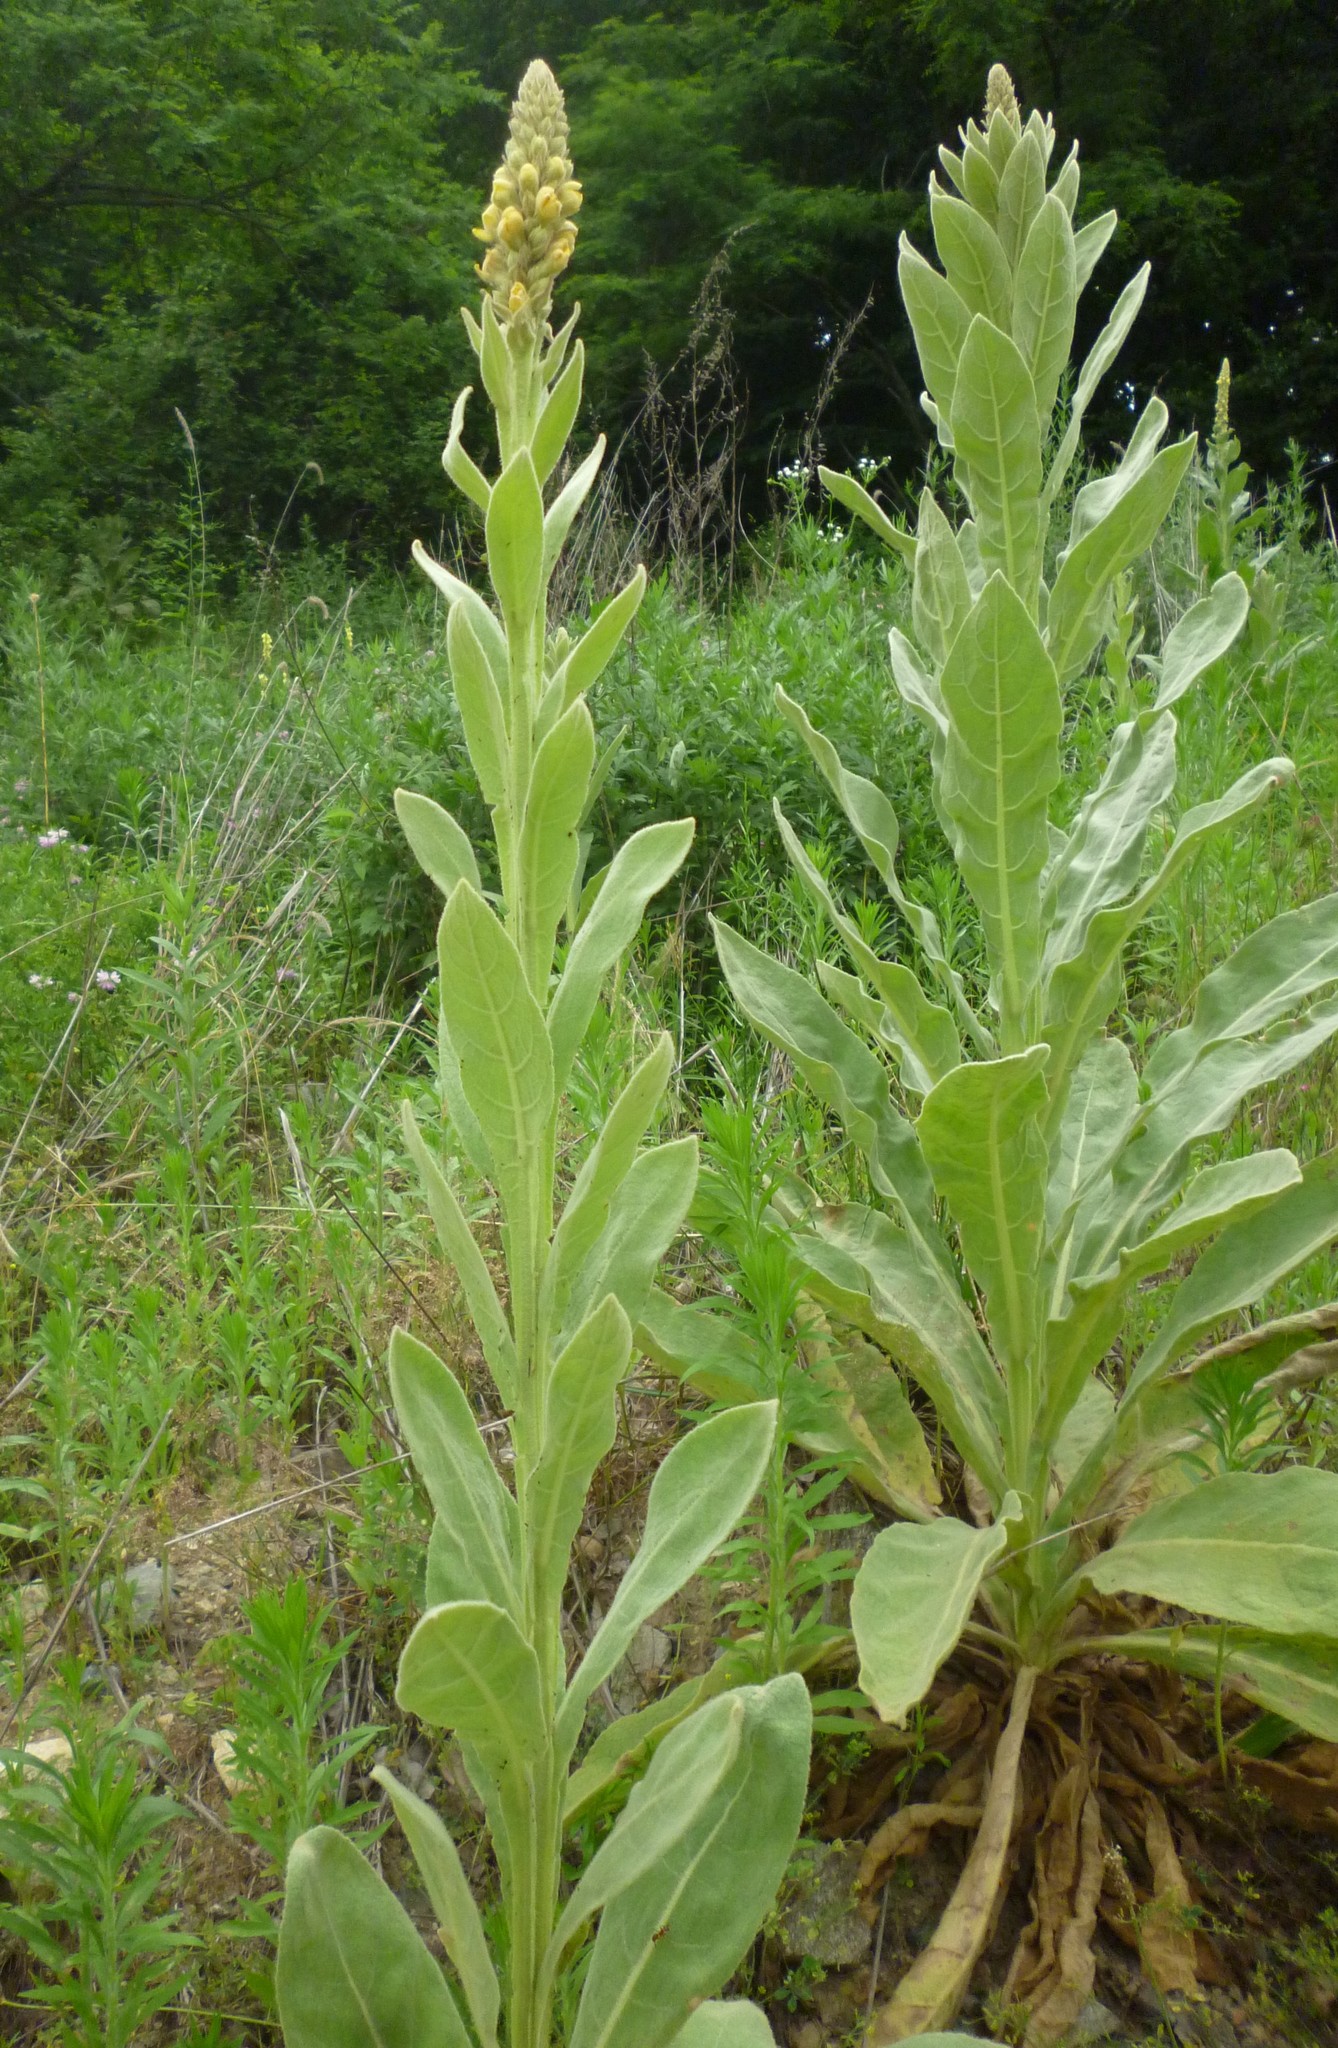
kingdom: Plantae
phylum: Tracheophyta
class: Magnoliopsida
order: Lamiales
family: Scrophulariaceae
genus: Verbascum
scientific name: Verbascum thapsus
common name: Common mullein
